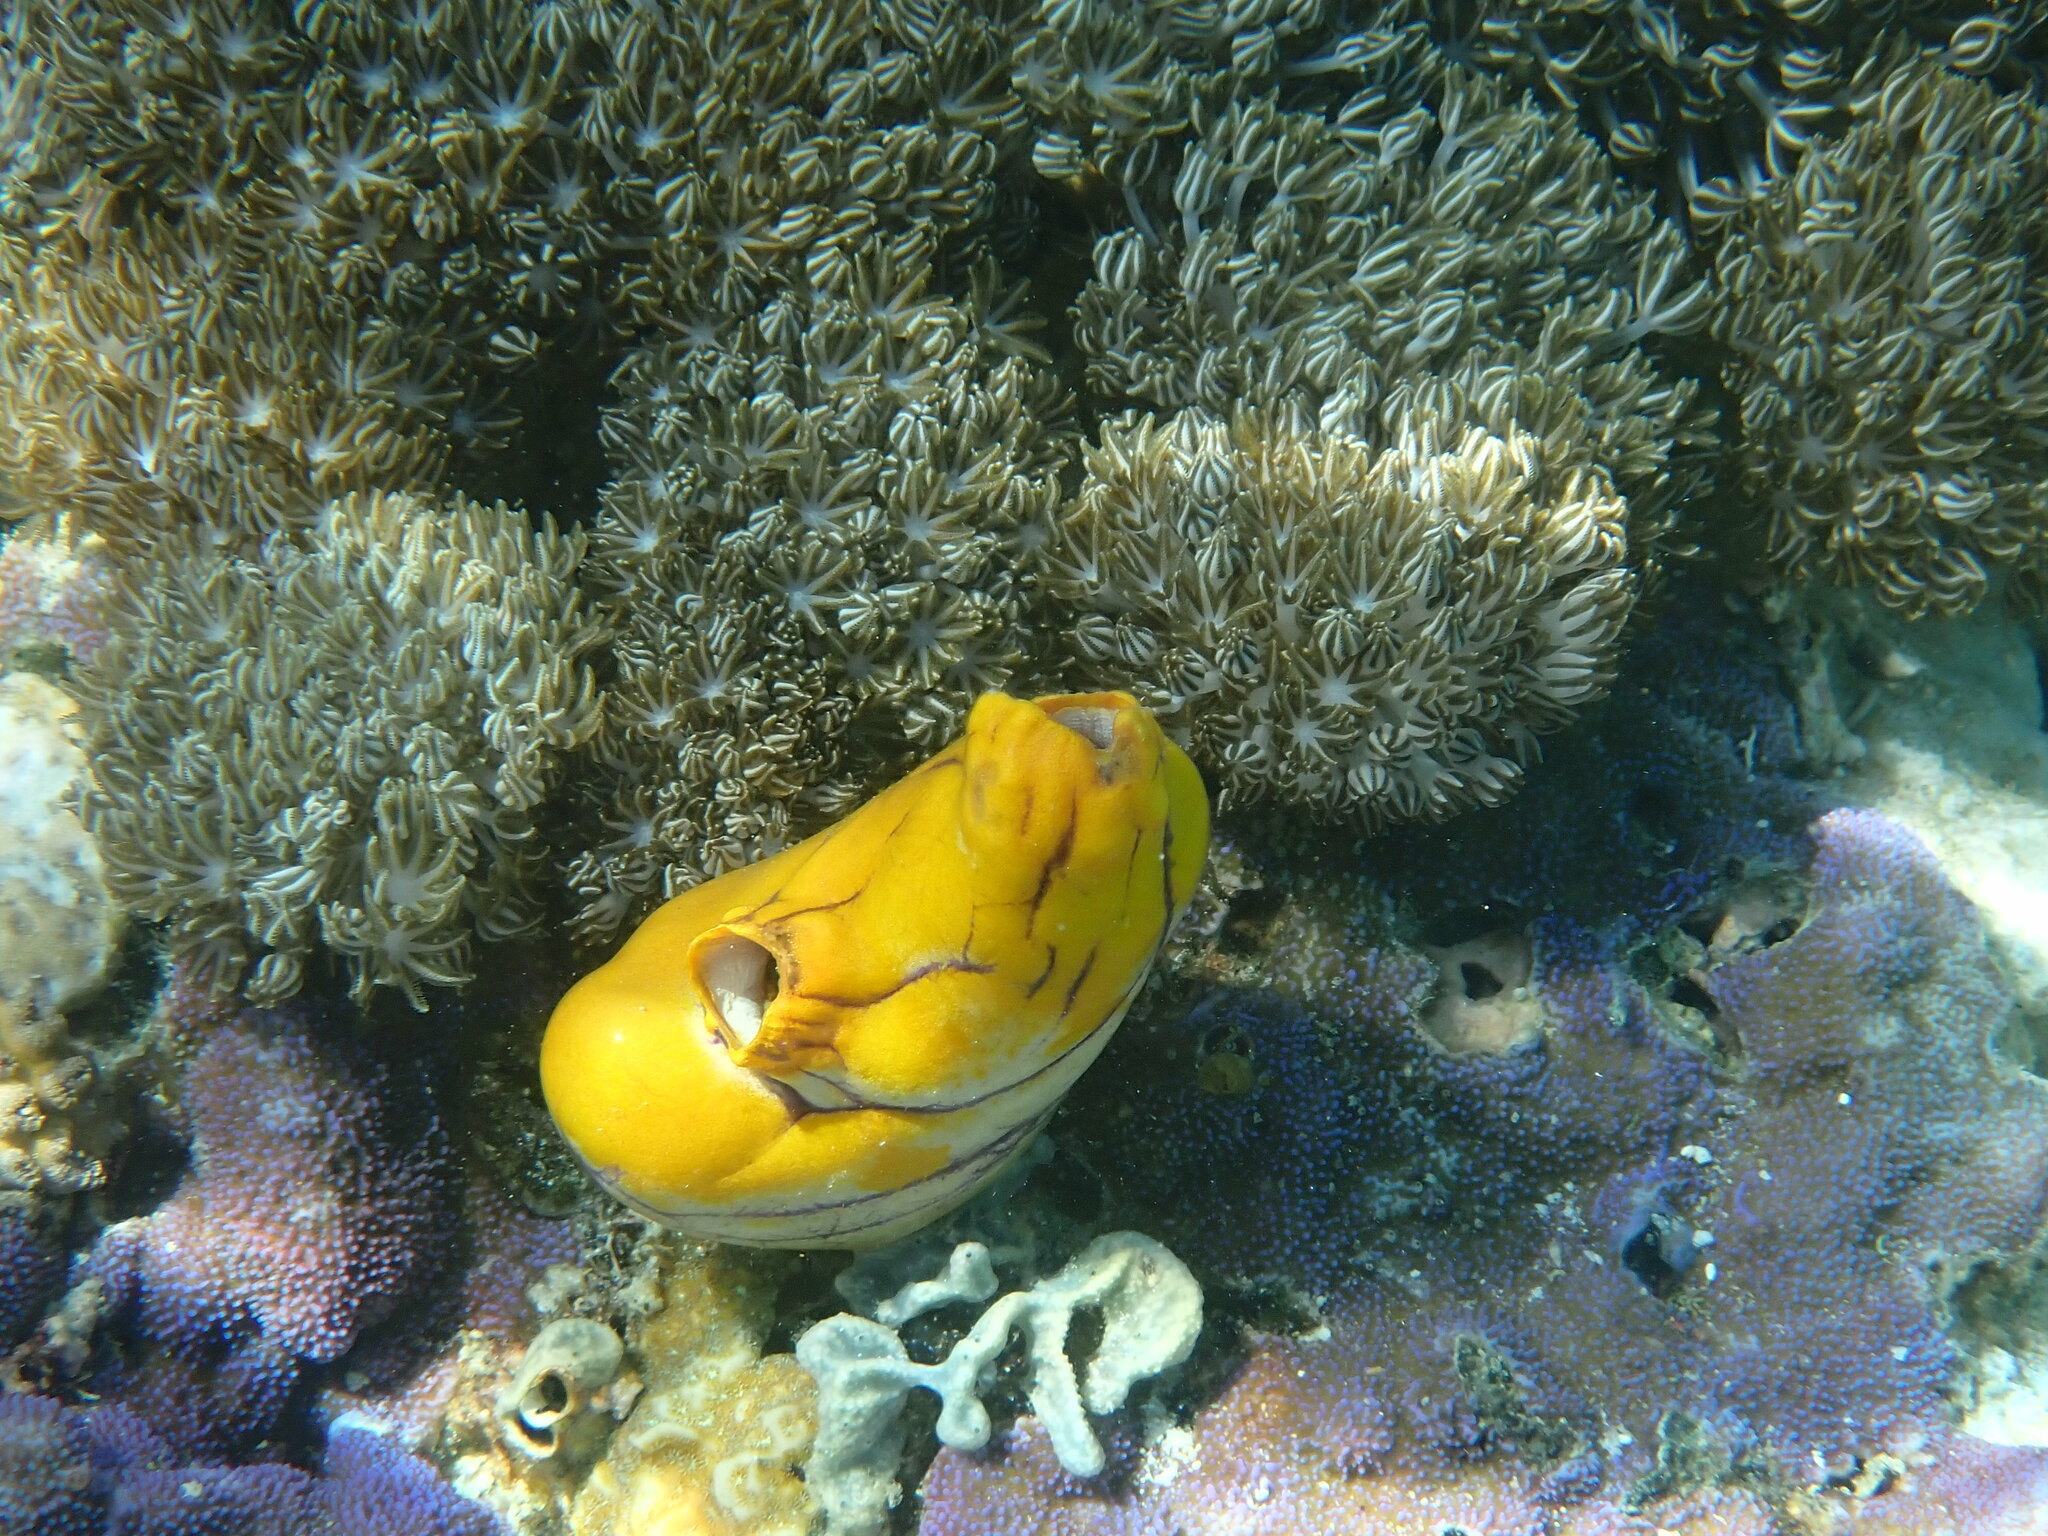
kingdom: Animalia
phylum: Chordata
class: Ascidiacea
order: Stolidobranchia
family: Styelidae
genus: Polycarpa
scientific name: Polycarpa aurata
